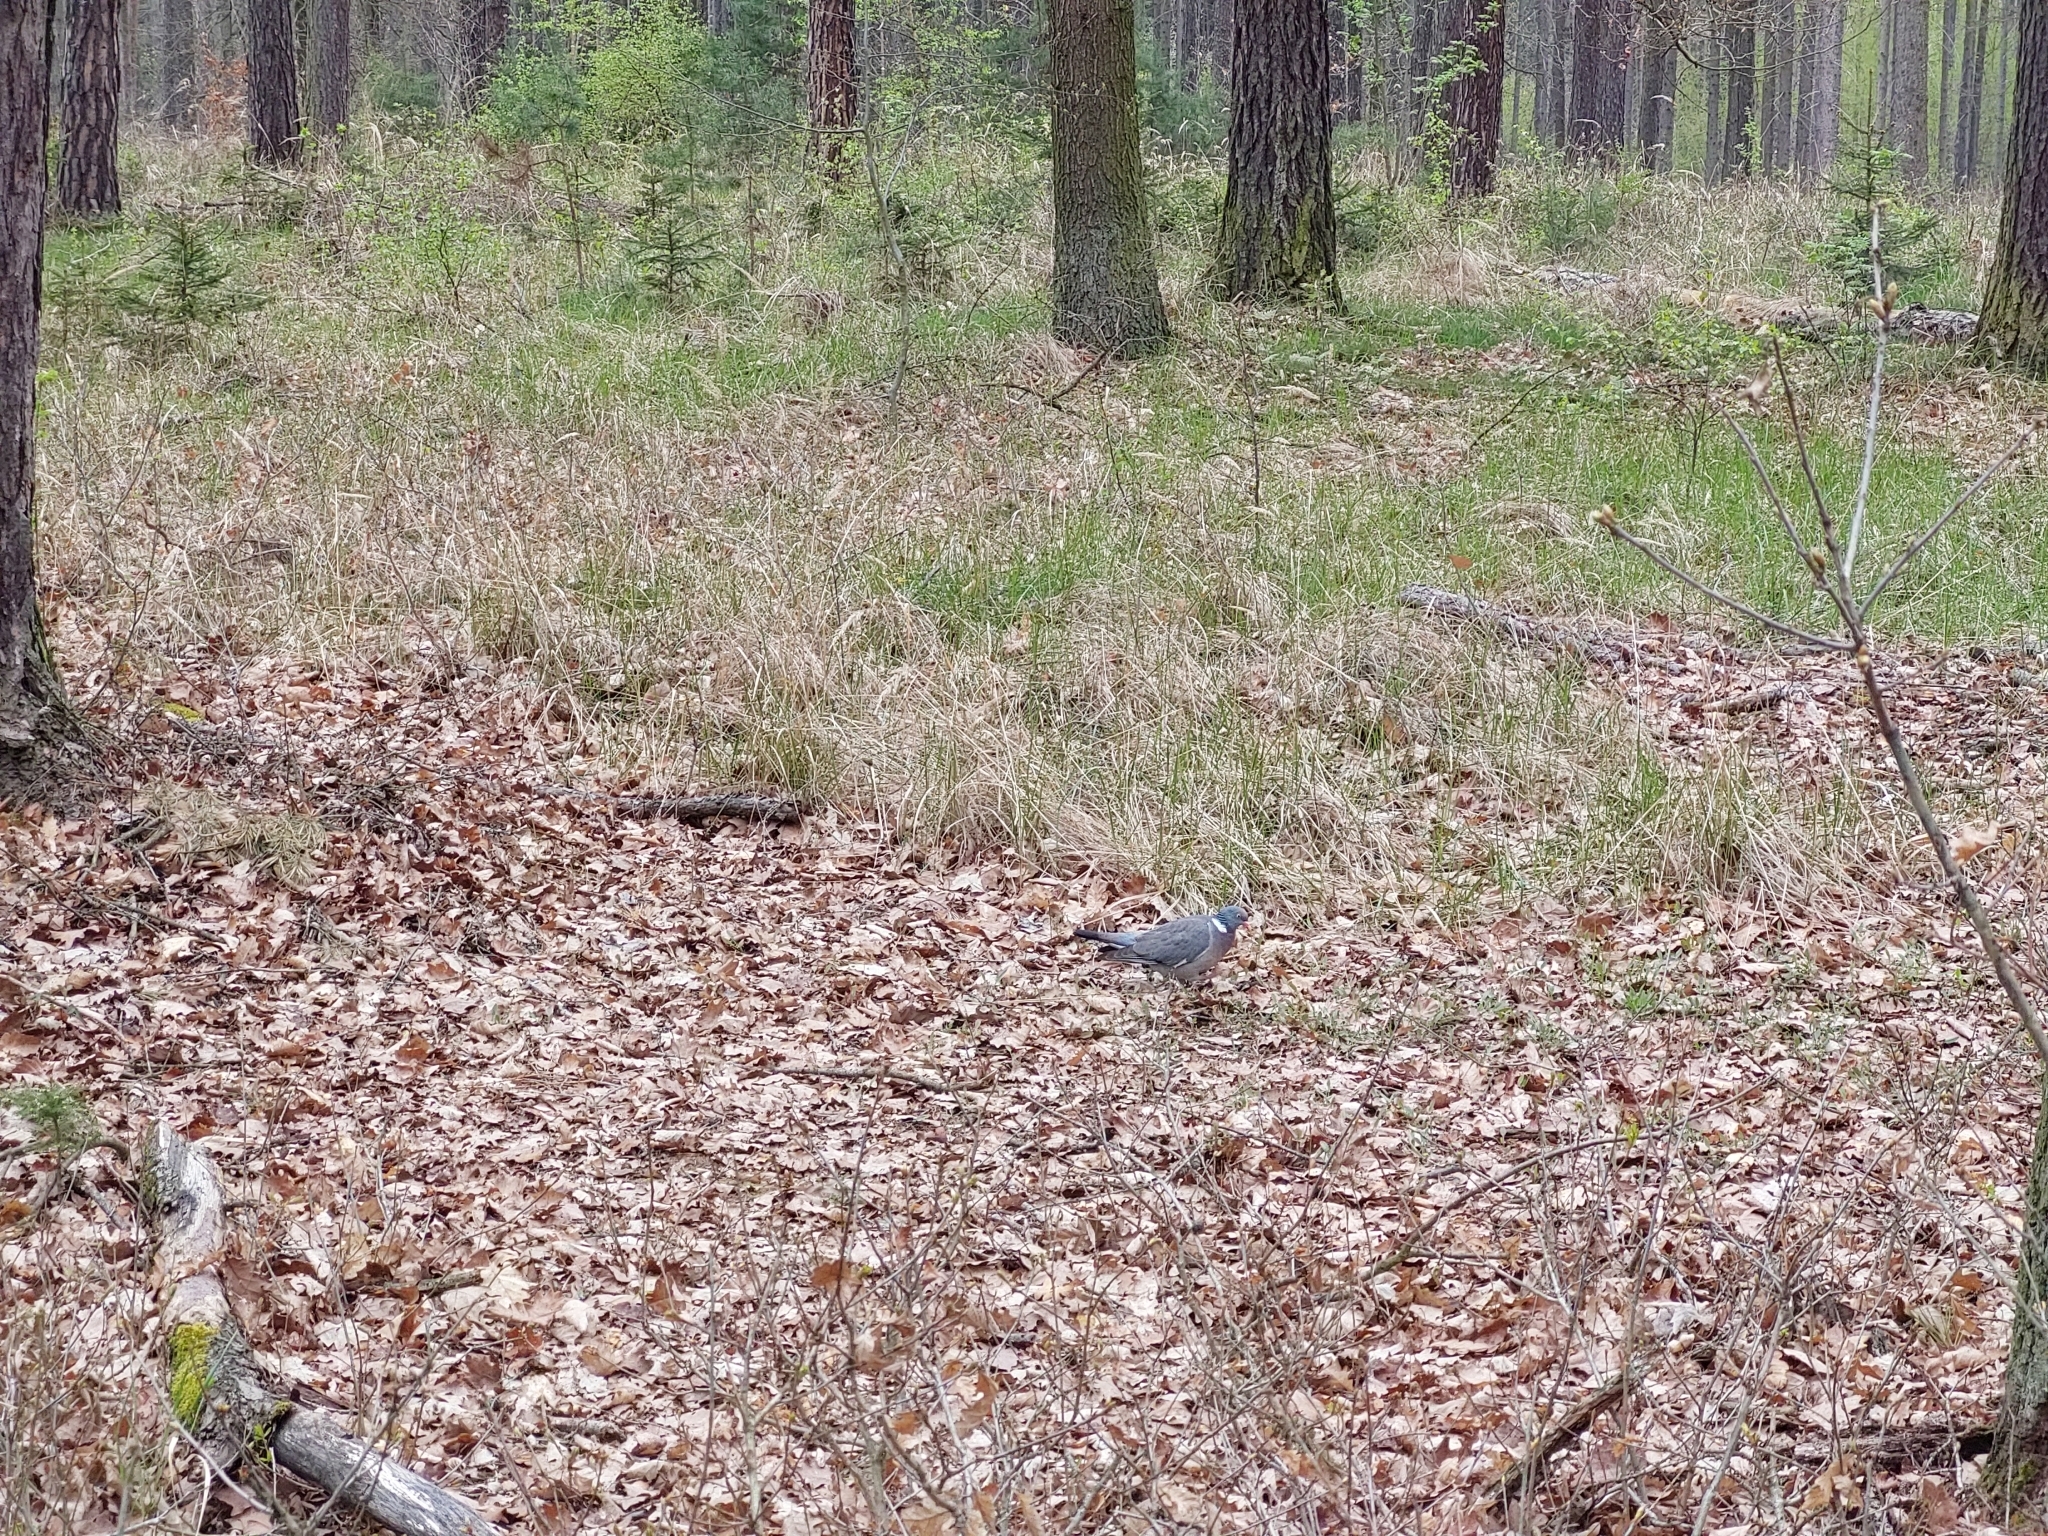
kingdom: Animalia
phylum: Chordata
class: Aves
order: Columbiformes
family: Columbidae
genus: Columba
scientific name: Columba palumbus
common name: Common wood pigeon
